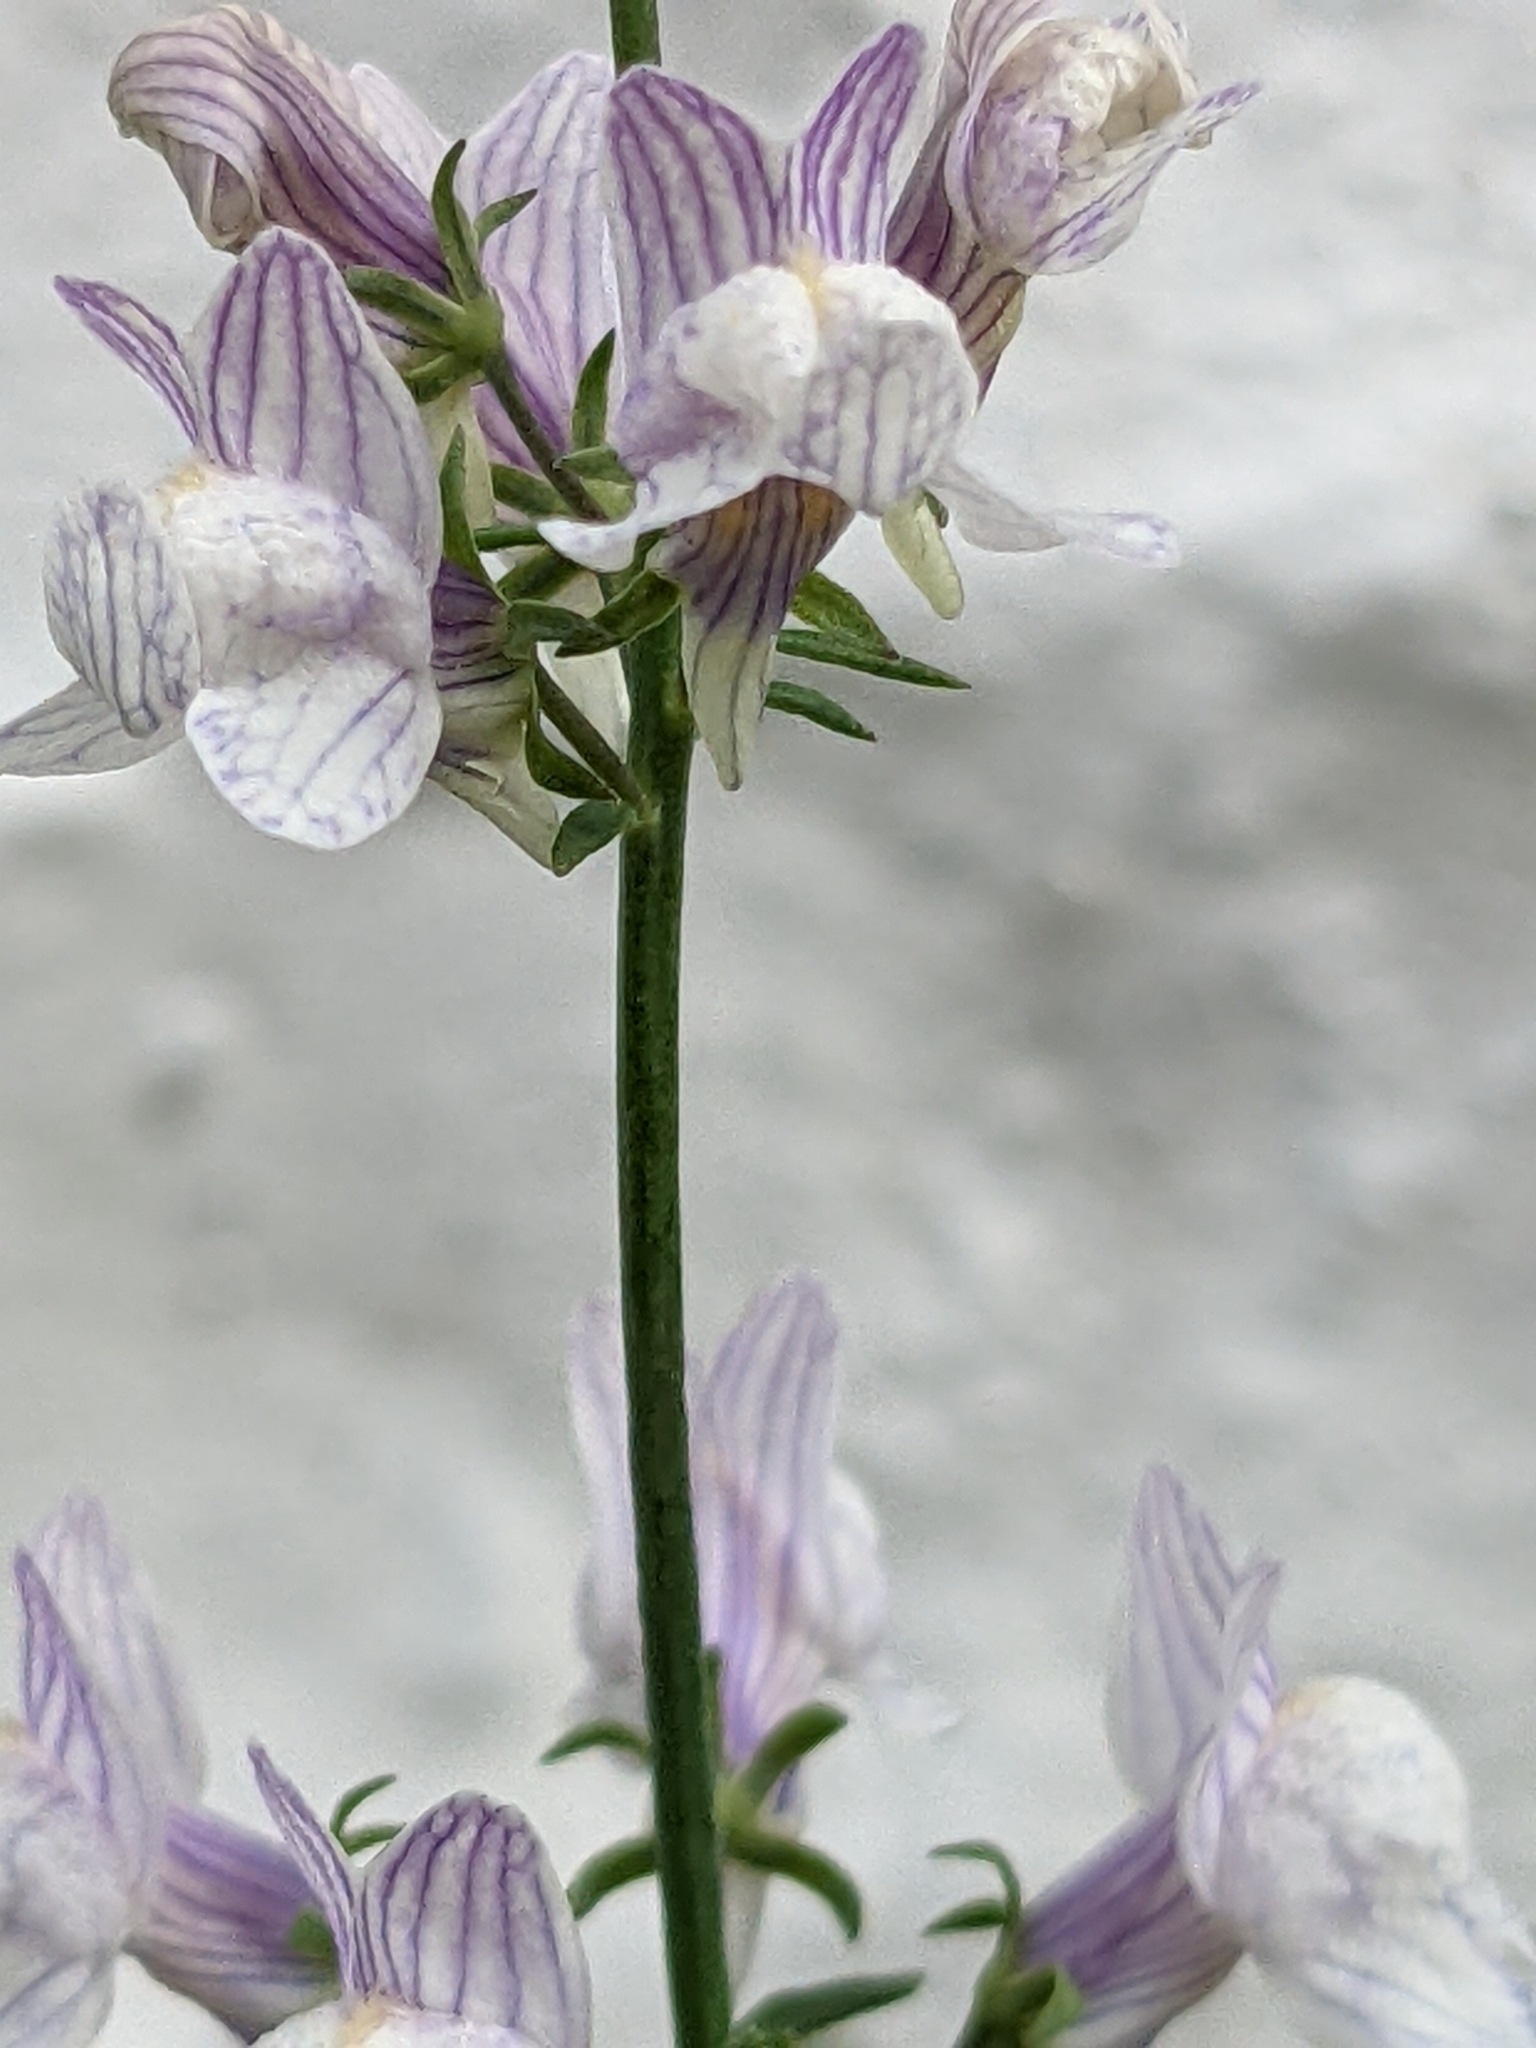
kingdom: Plantae
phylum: Tracheophyta
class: Magnoliopsida
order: Lamiales
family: Plantaginaceae
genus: Linaria
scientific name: Linaria repens
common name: Pale toadflax
